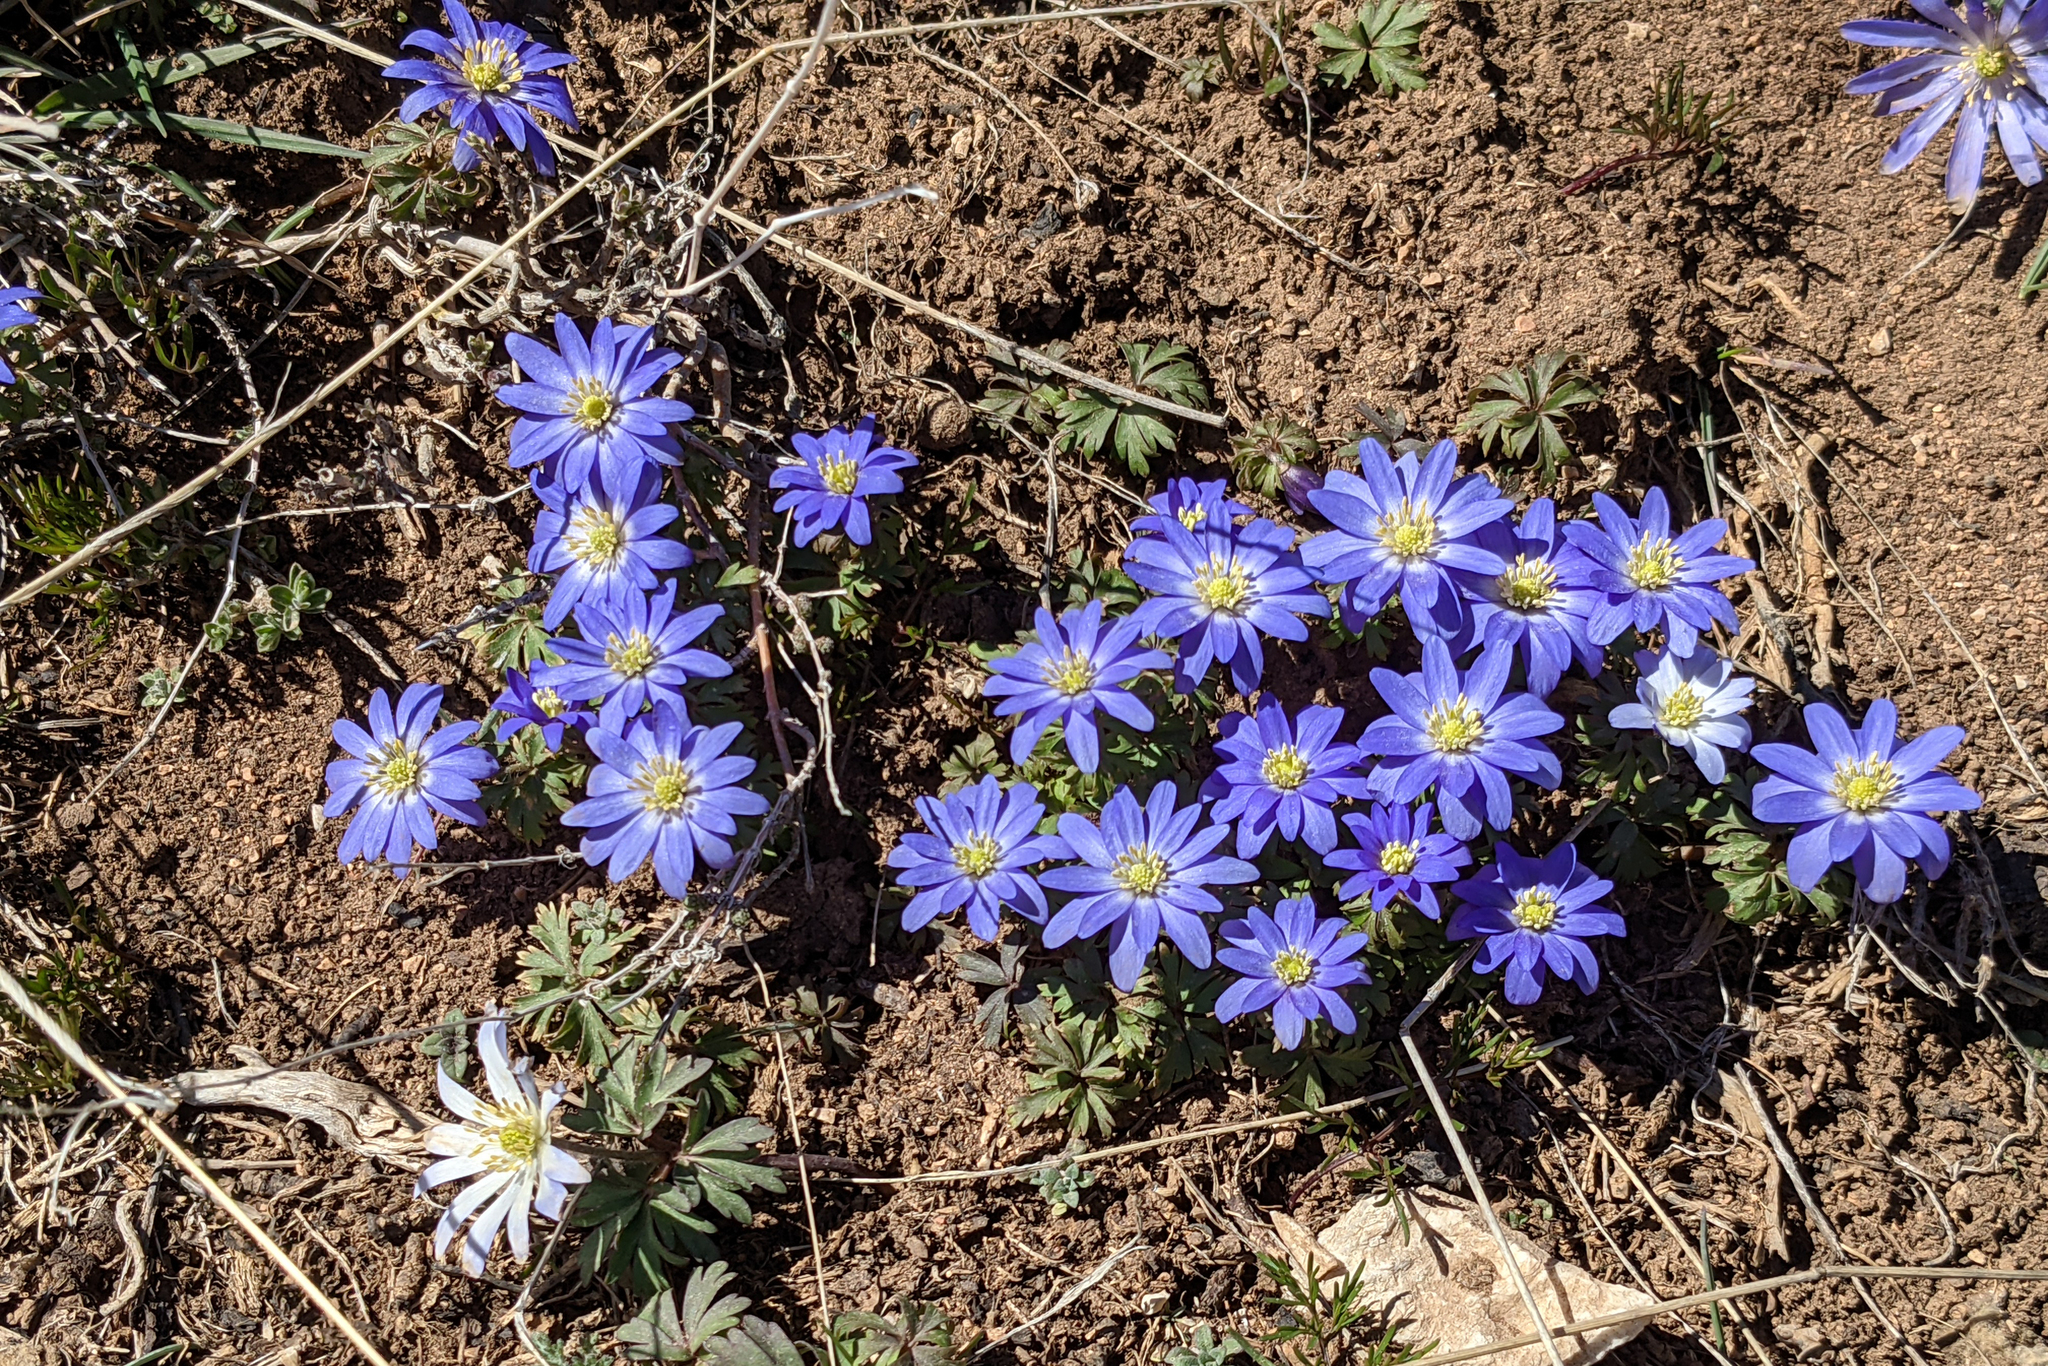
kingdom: Plantae
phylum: Tracheophyta
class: Magnoliopsida
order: Ranunculales
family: Ranunculaceae
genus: Anemone
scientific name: Anemone blanda
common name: Balkan anemone
